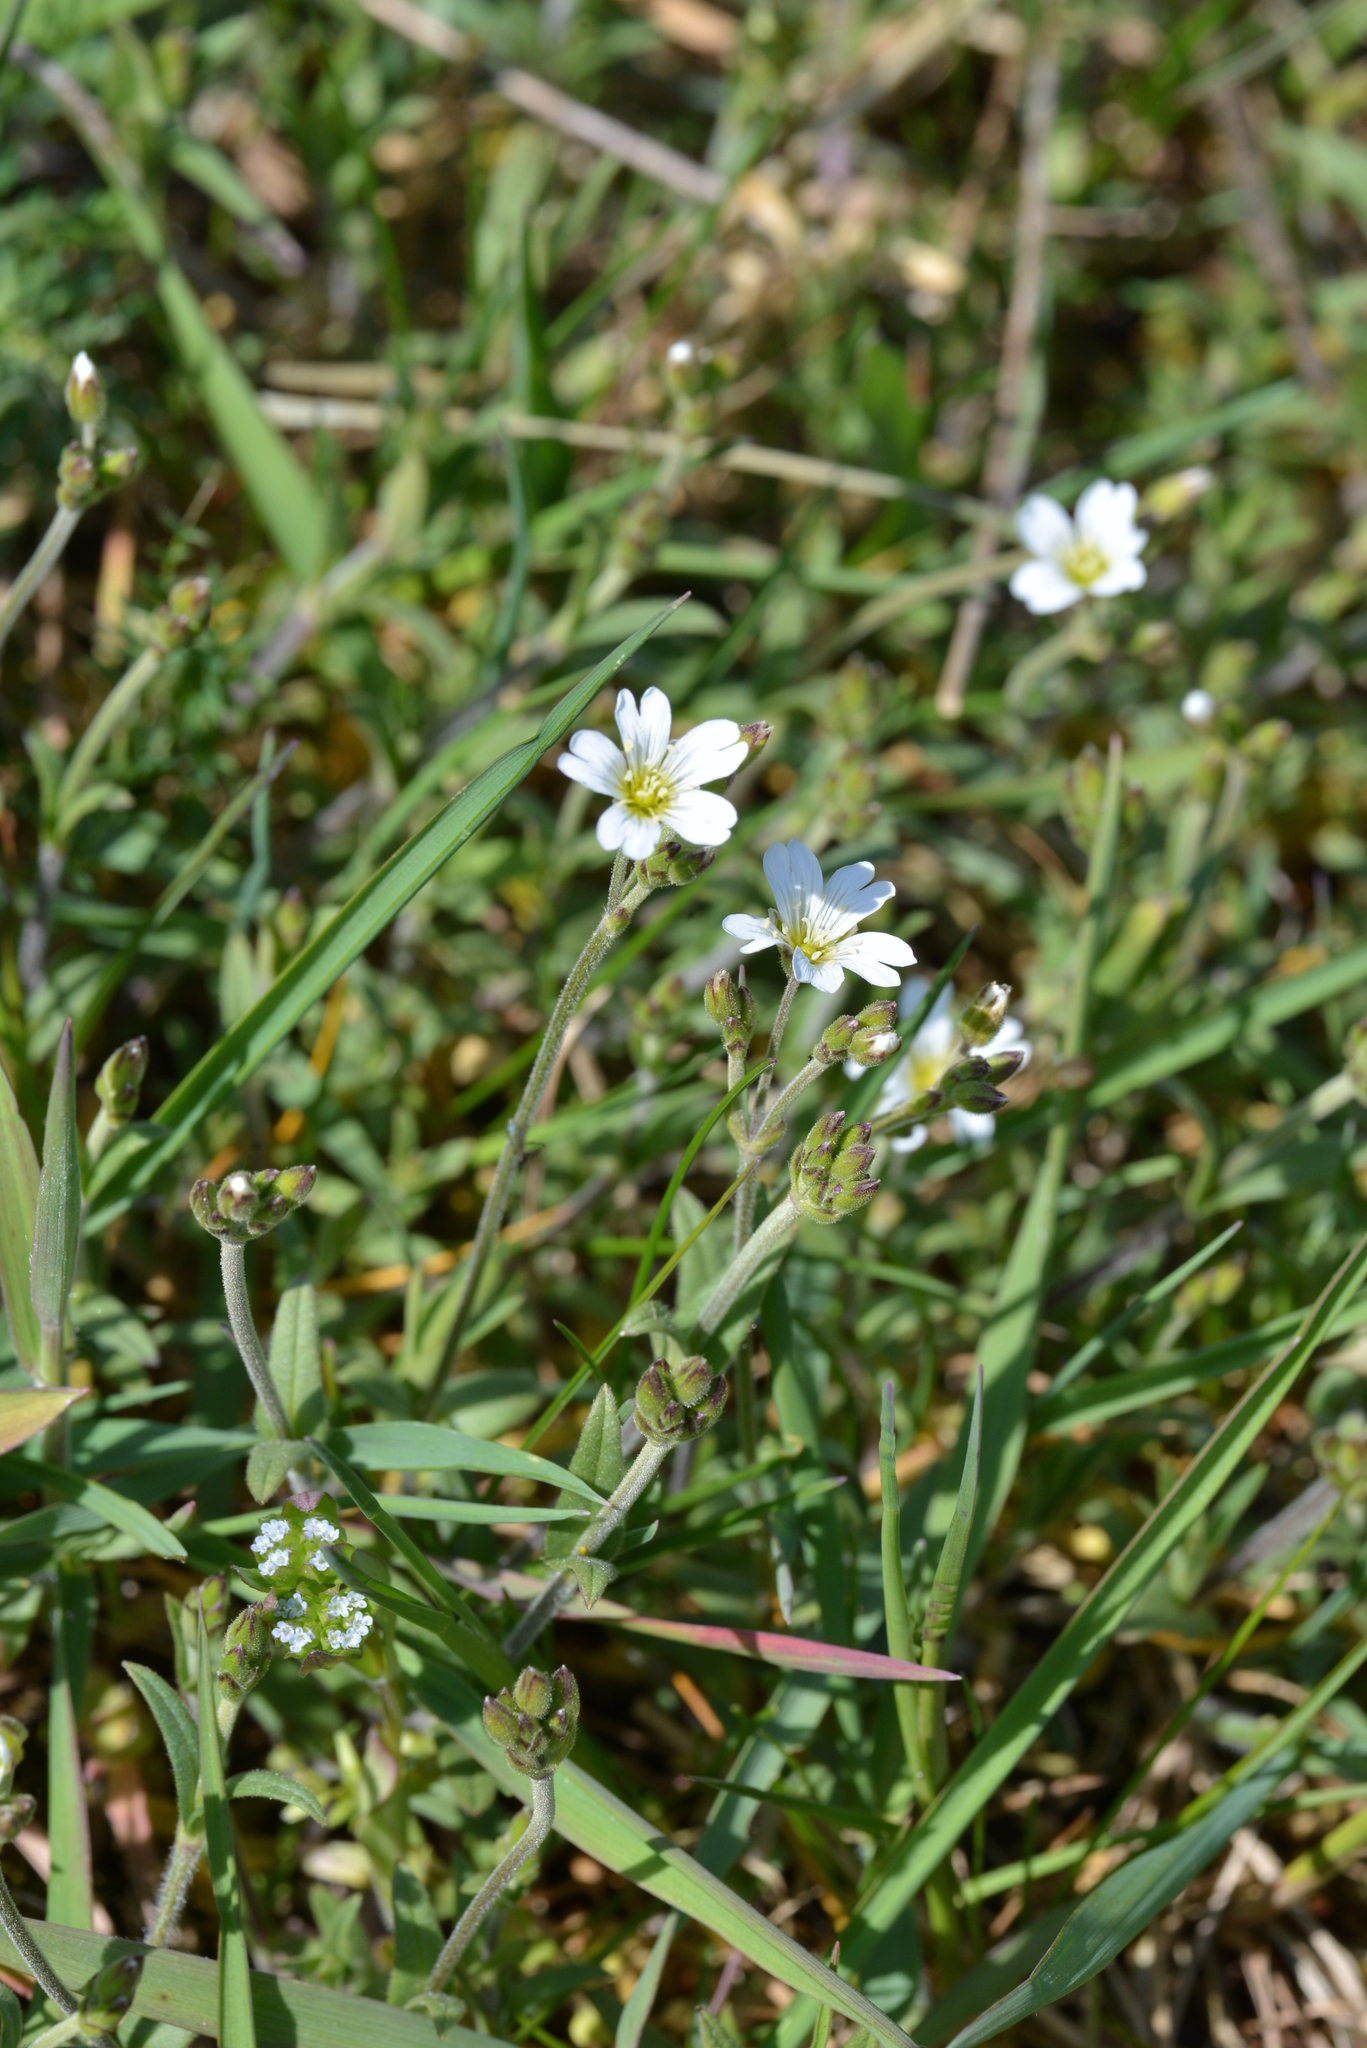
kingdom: Plantae
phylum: Tracheophyta
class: Magnoliopsida
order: Caryophyllales
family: Caryophyllaceae
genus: Cerastium
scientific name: Cerastium arvense
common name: Field mouse-ear
